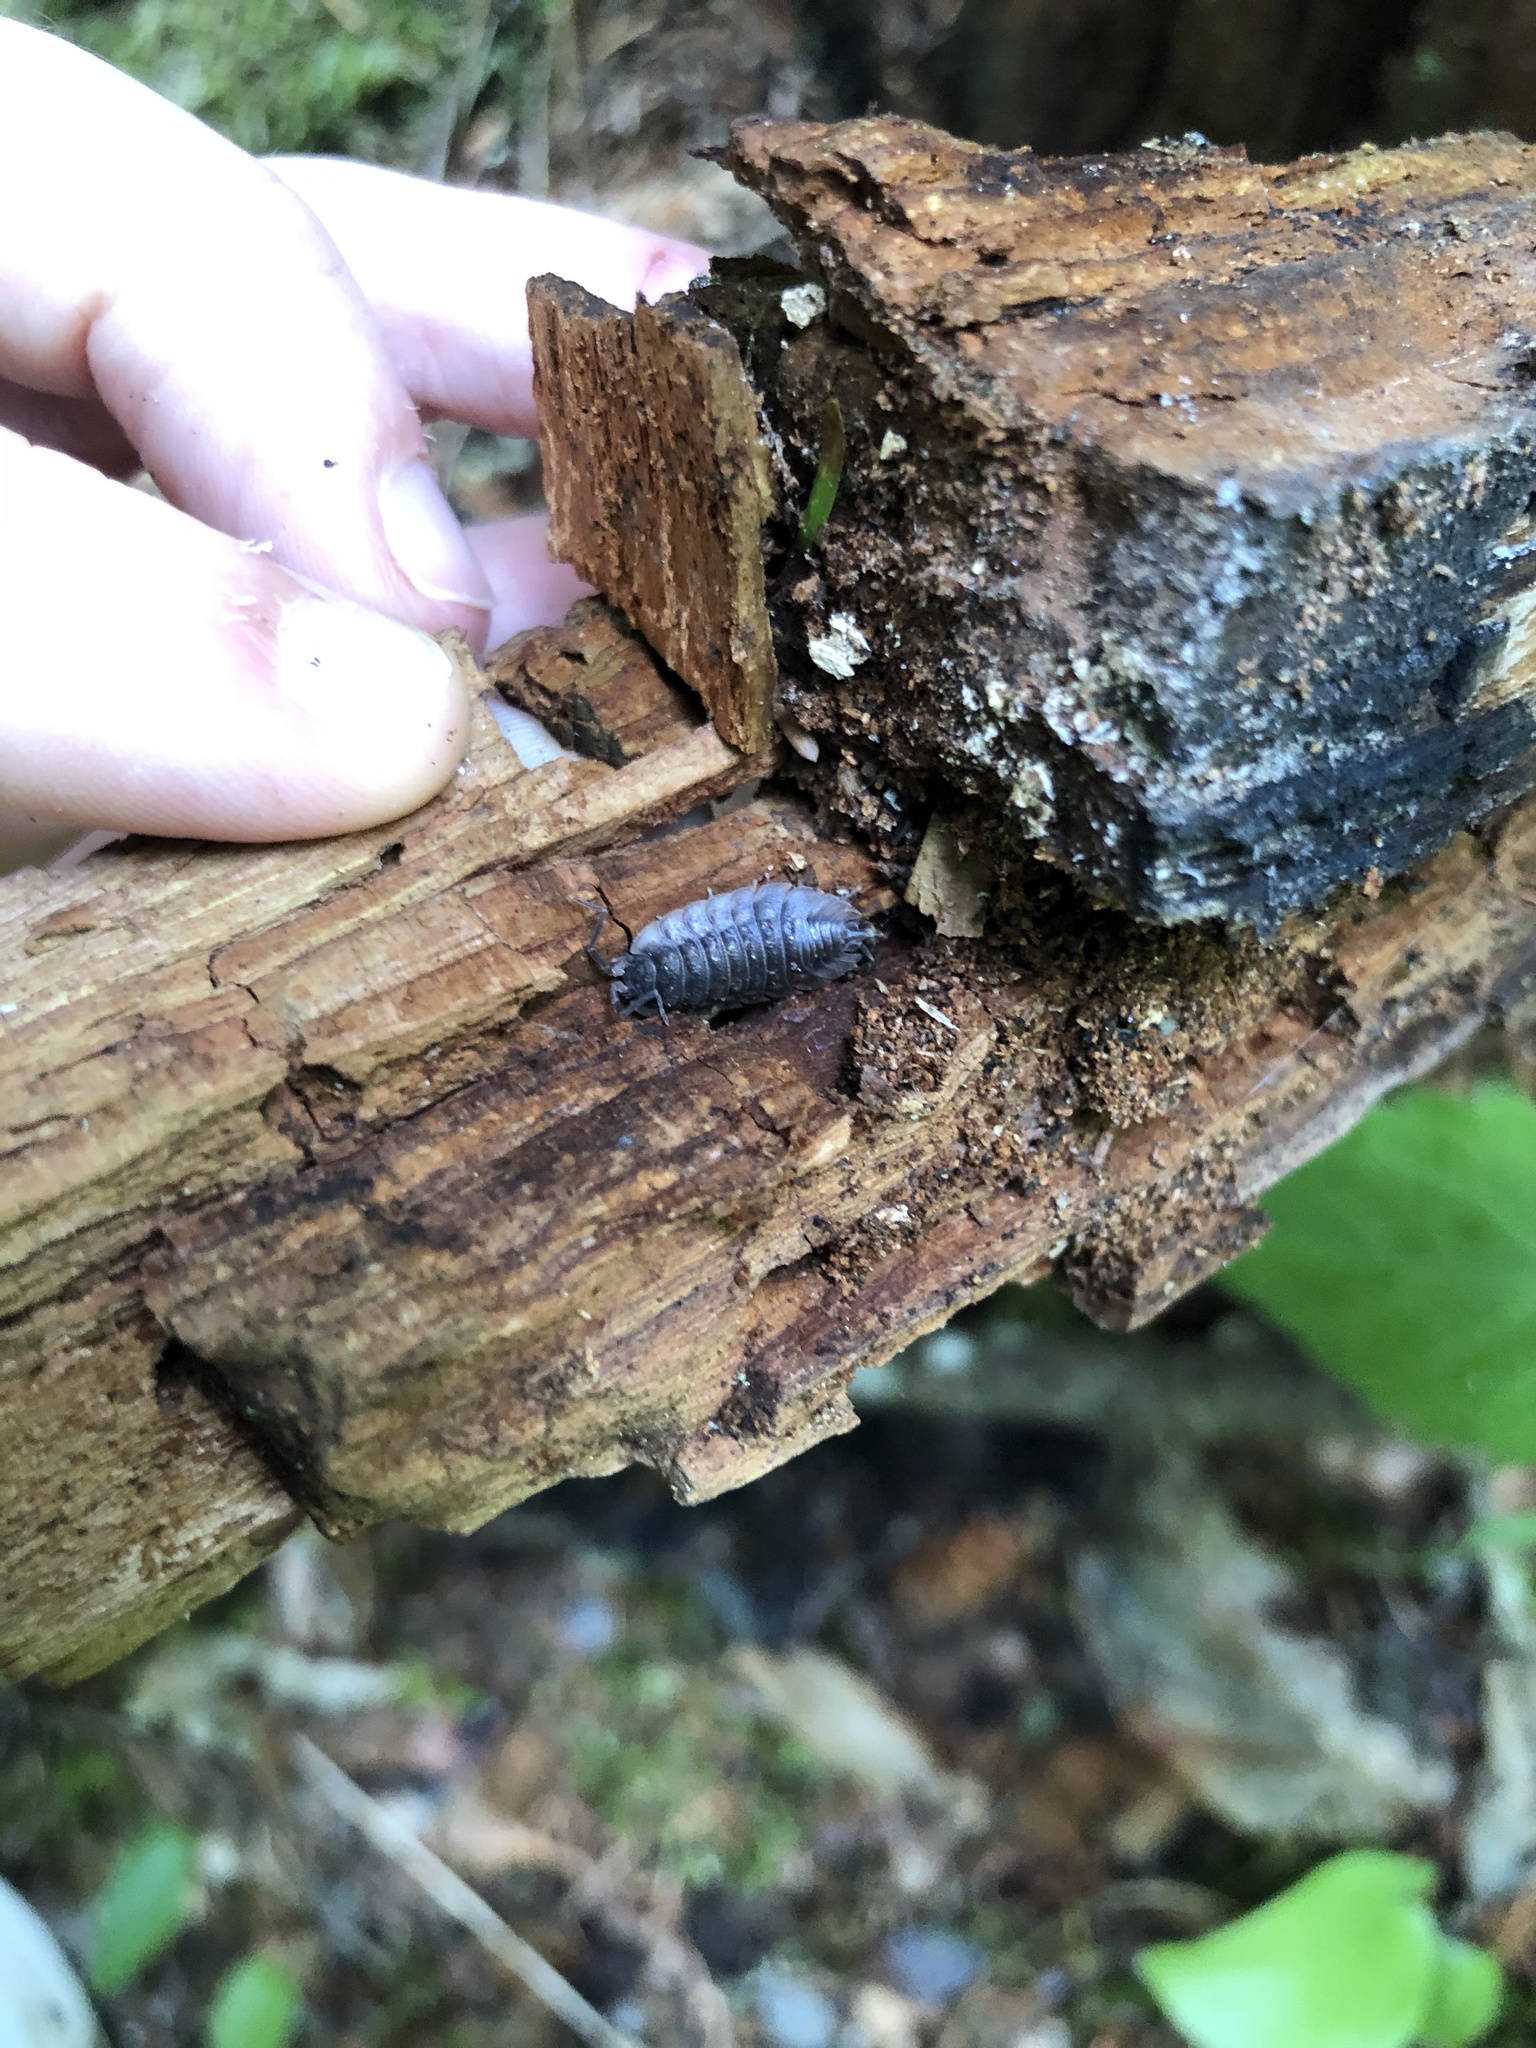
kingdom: Animalia
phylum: Arthropoda
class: Malacostraca
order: Isopoda
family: Oniscidae
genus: Oniscus
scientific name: Oniscus asellus
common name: Common shiny woodlouse
